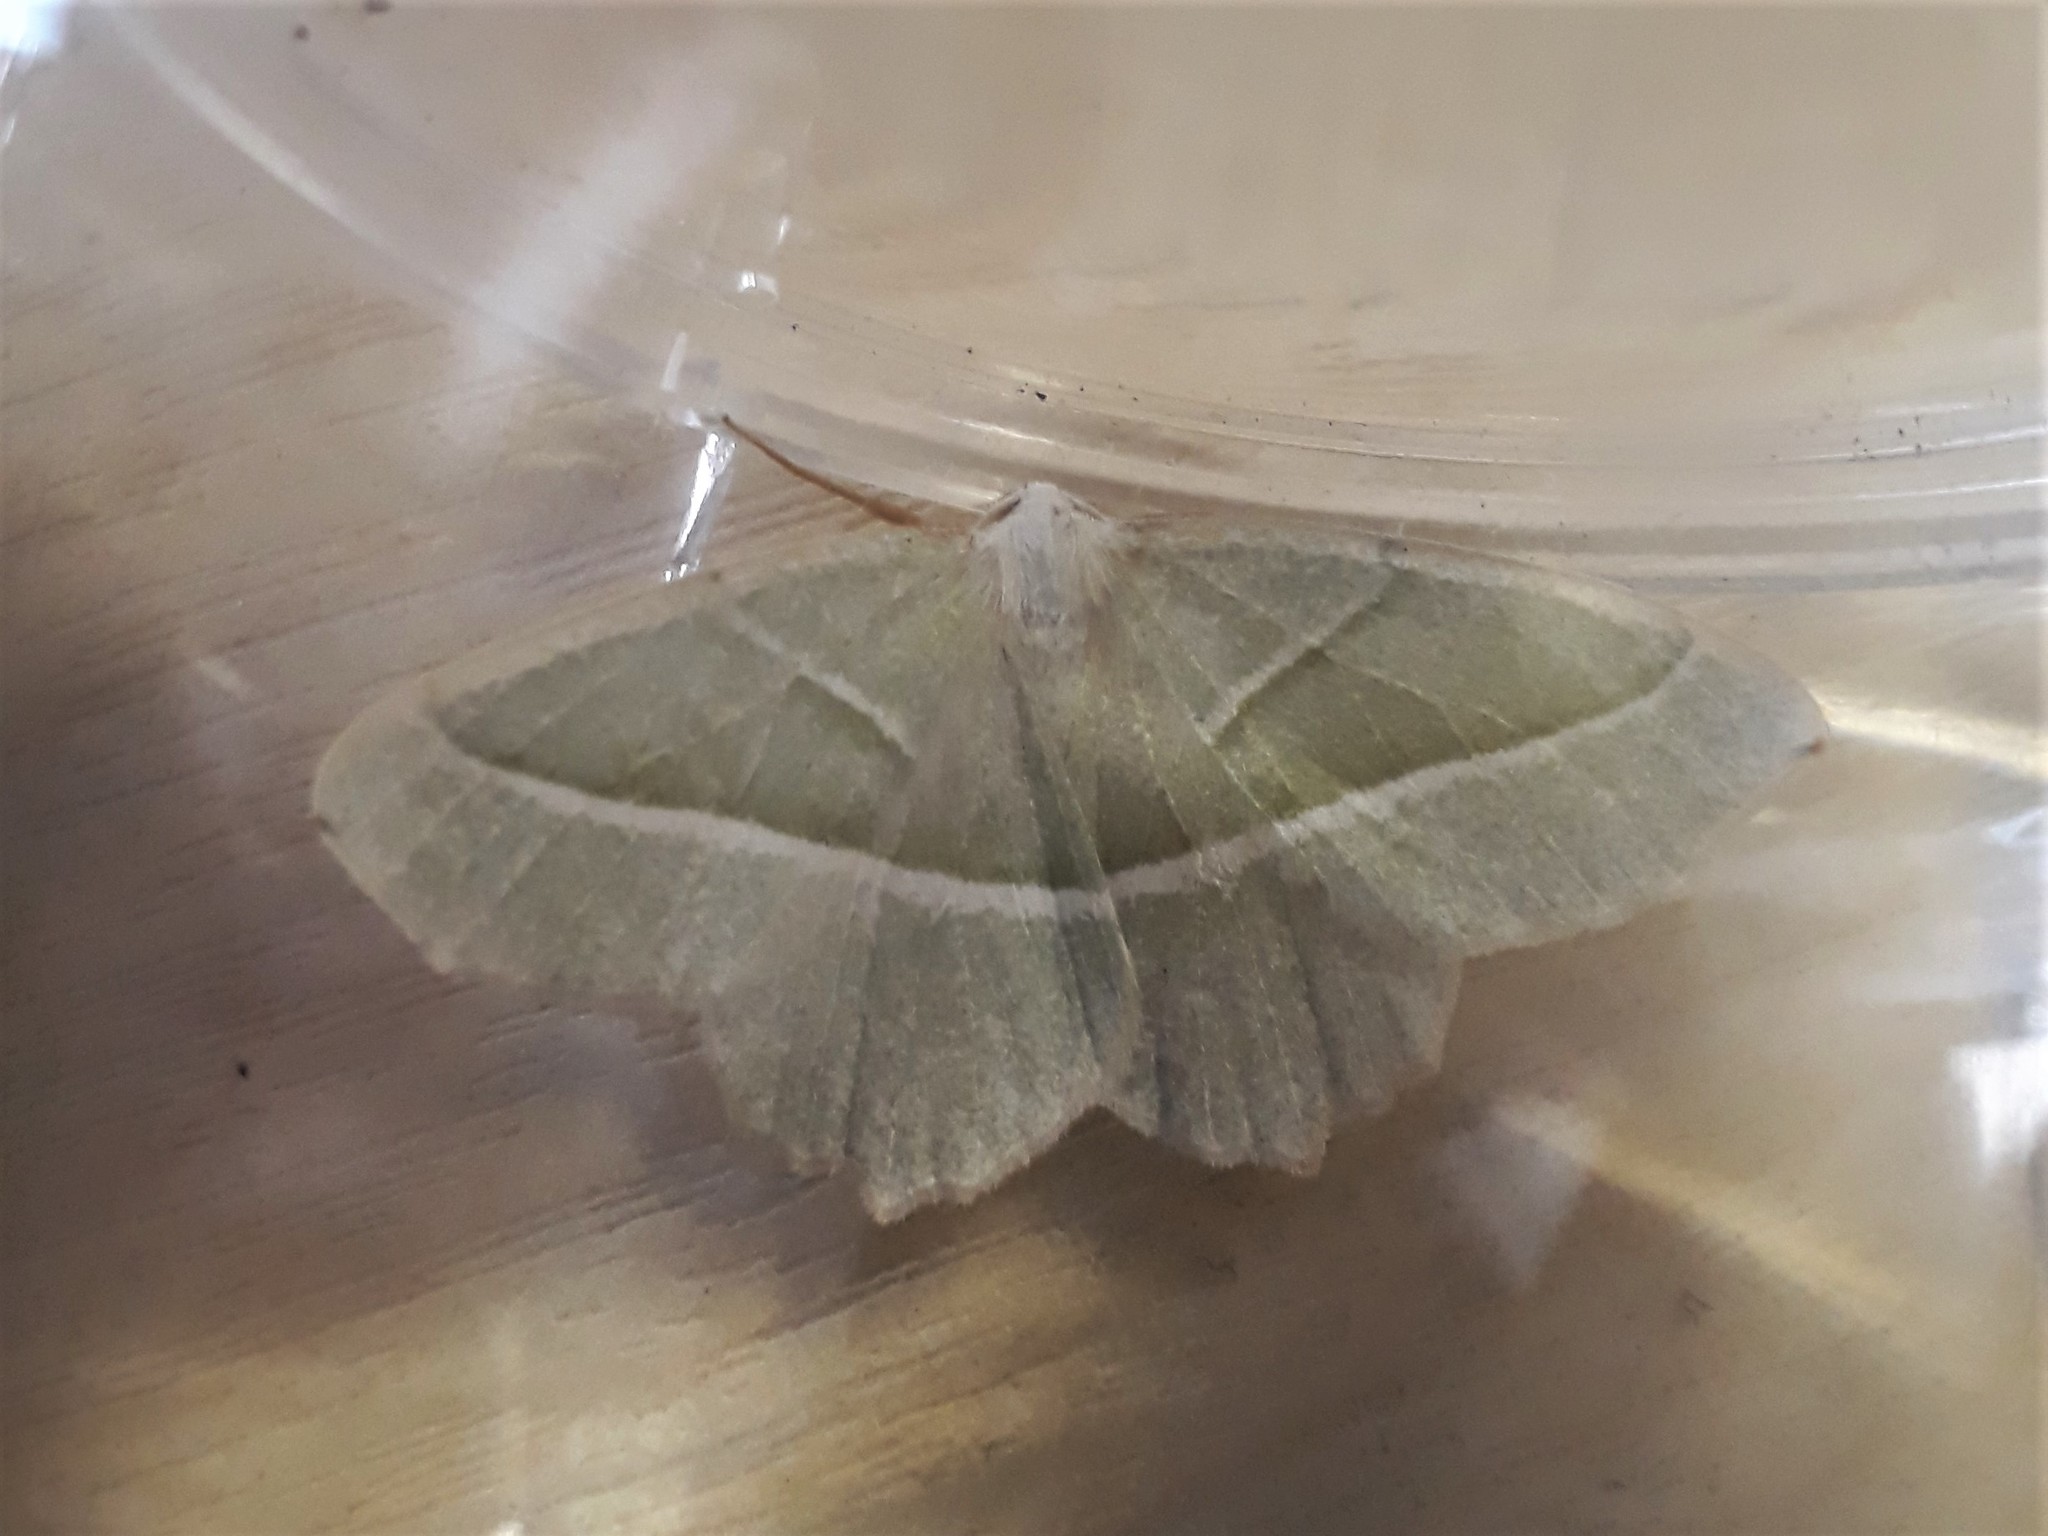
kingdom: Animalia
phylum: Arthropoda
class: Insecta
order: Lepidoptera
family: Geometridae
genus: Campaea
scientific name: Campaea margaritaria
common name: Light emerald
